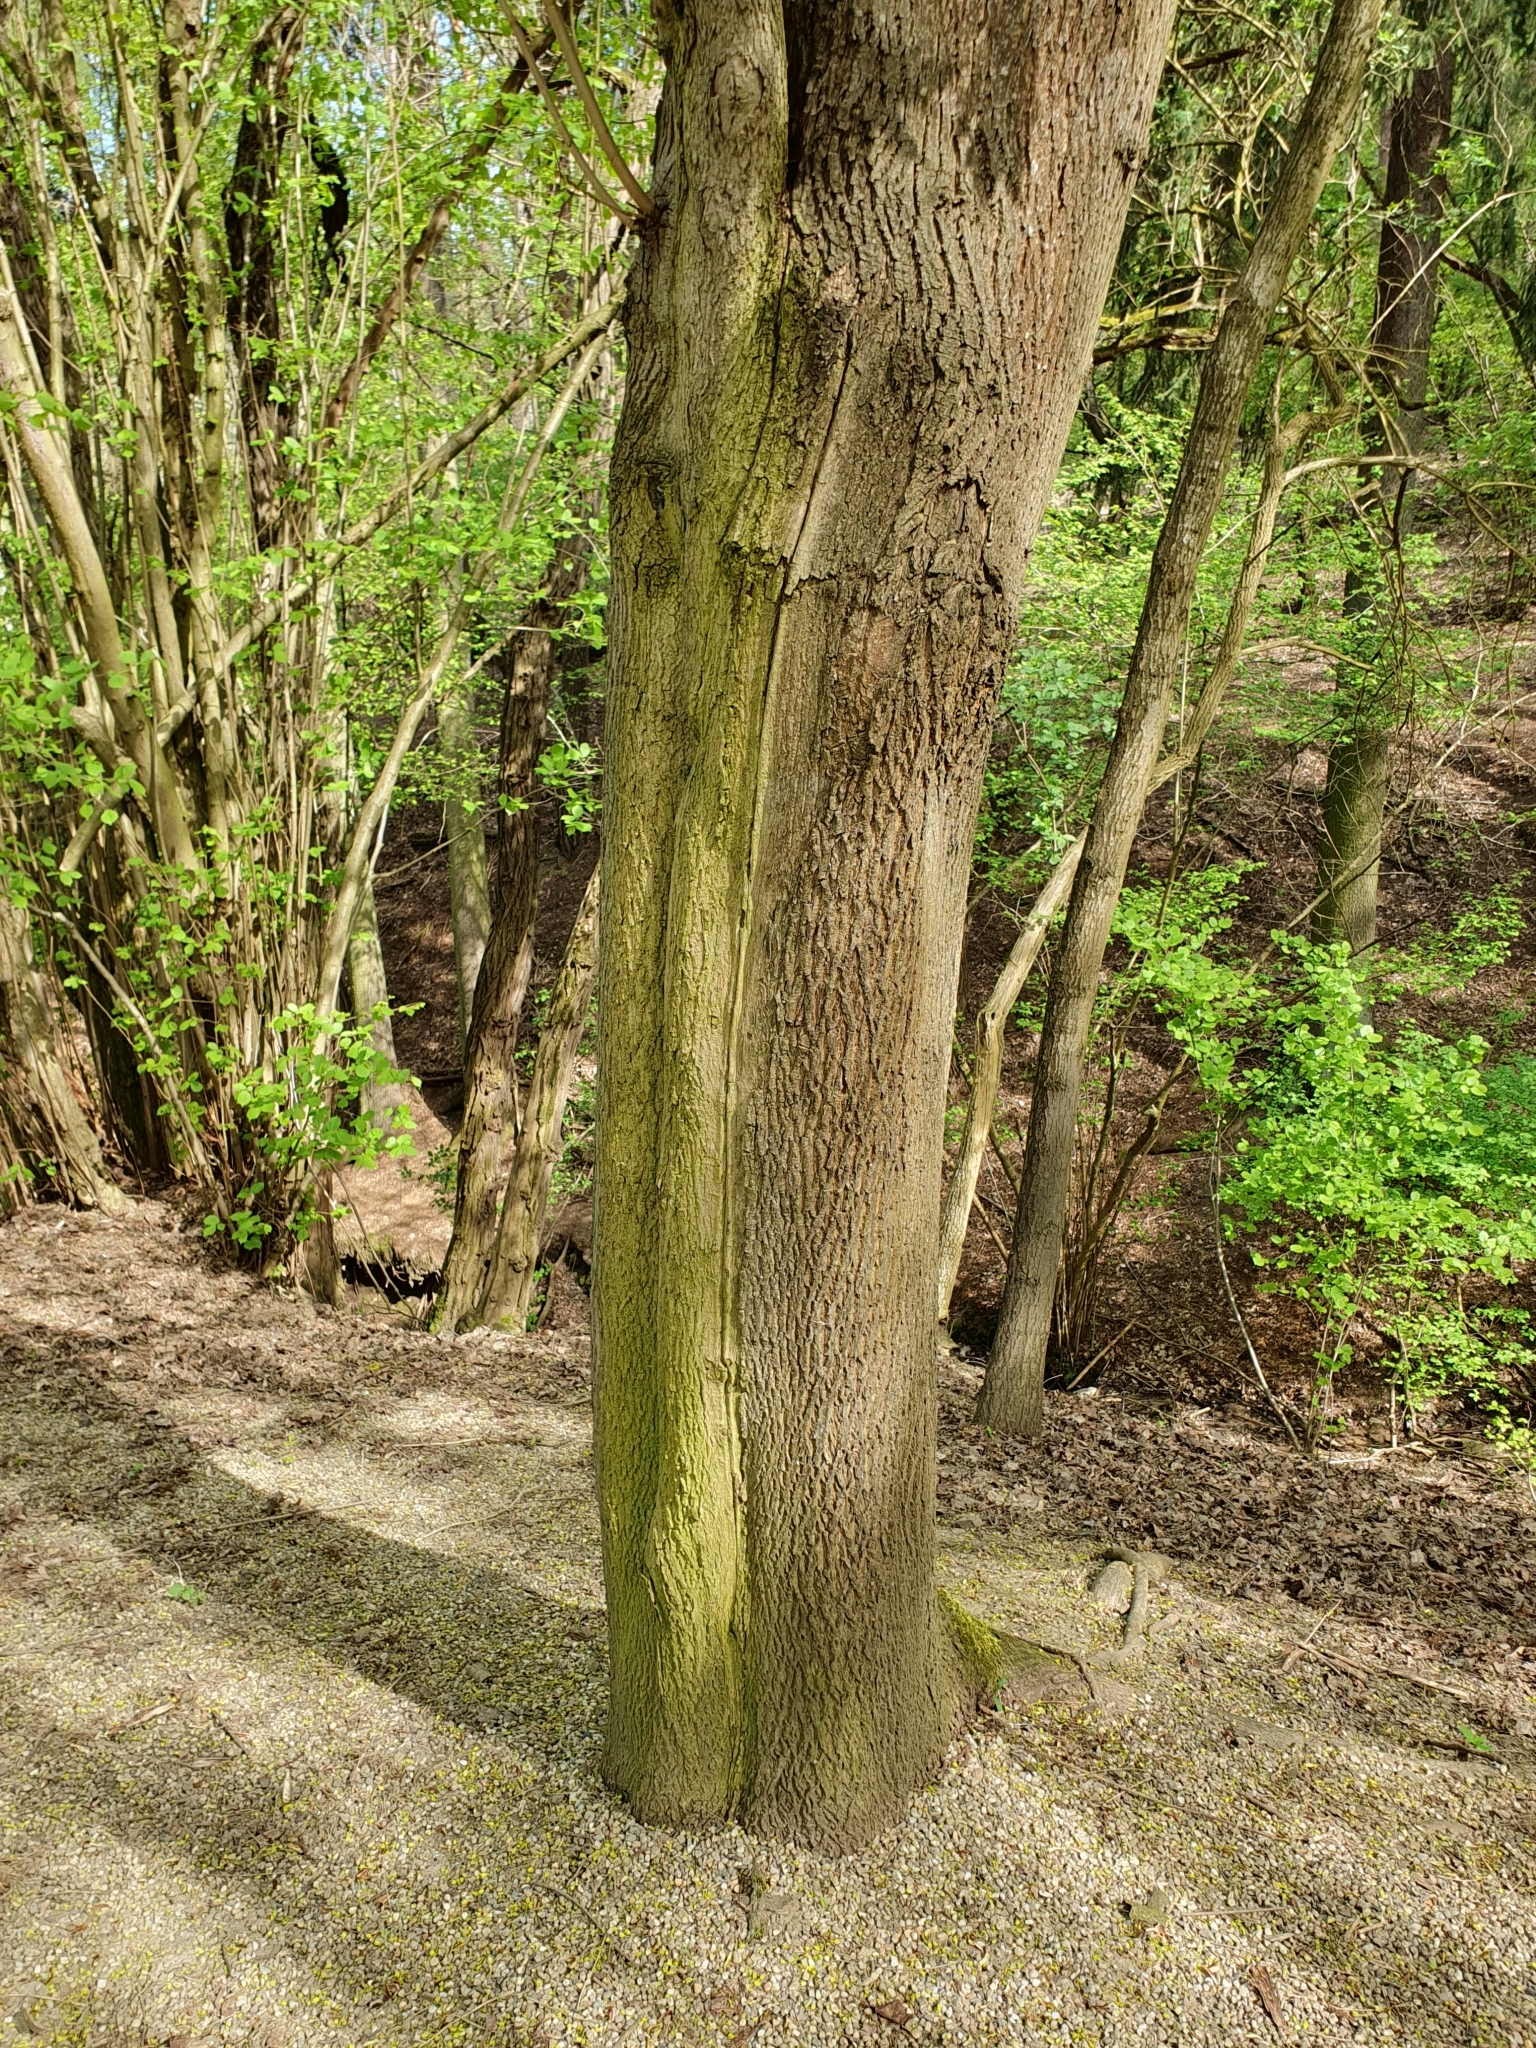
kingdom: Plantae
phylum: Tracheophyta
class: Magnoliopsida
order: Sapindales
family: Sapindaceae
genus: Acer
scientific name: Acer platanoides
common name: Norway maple
